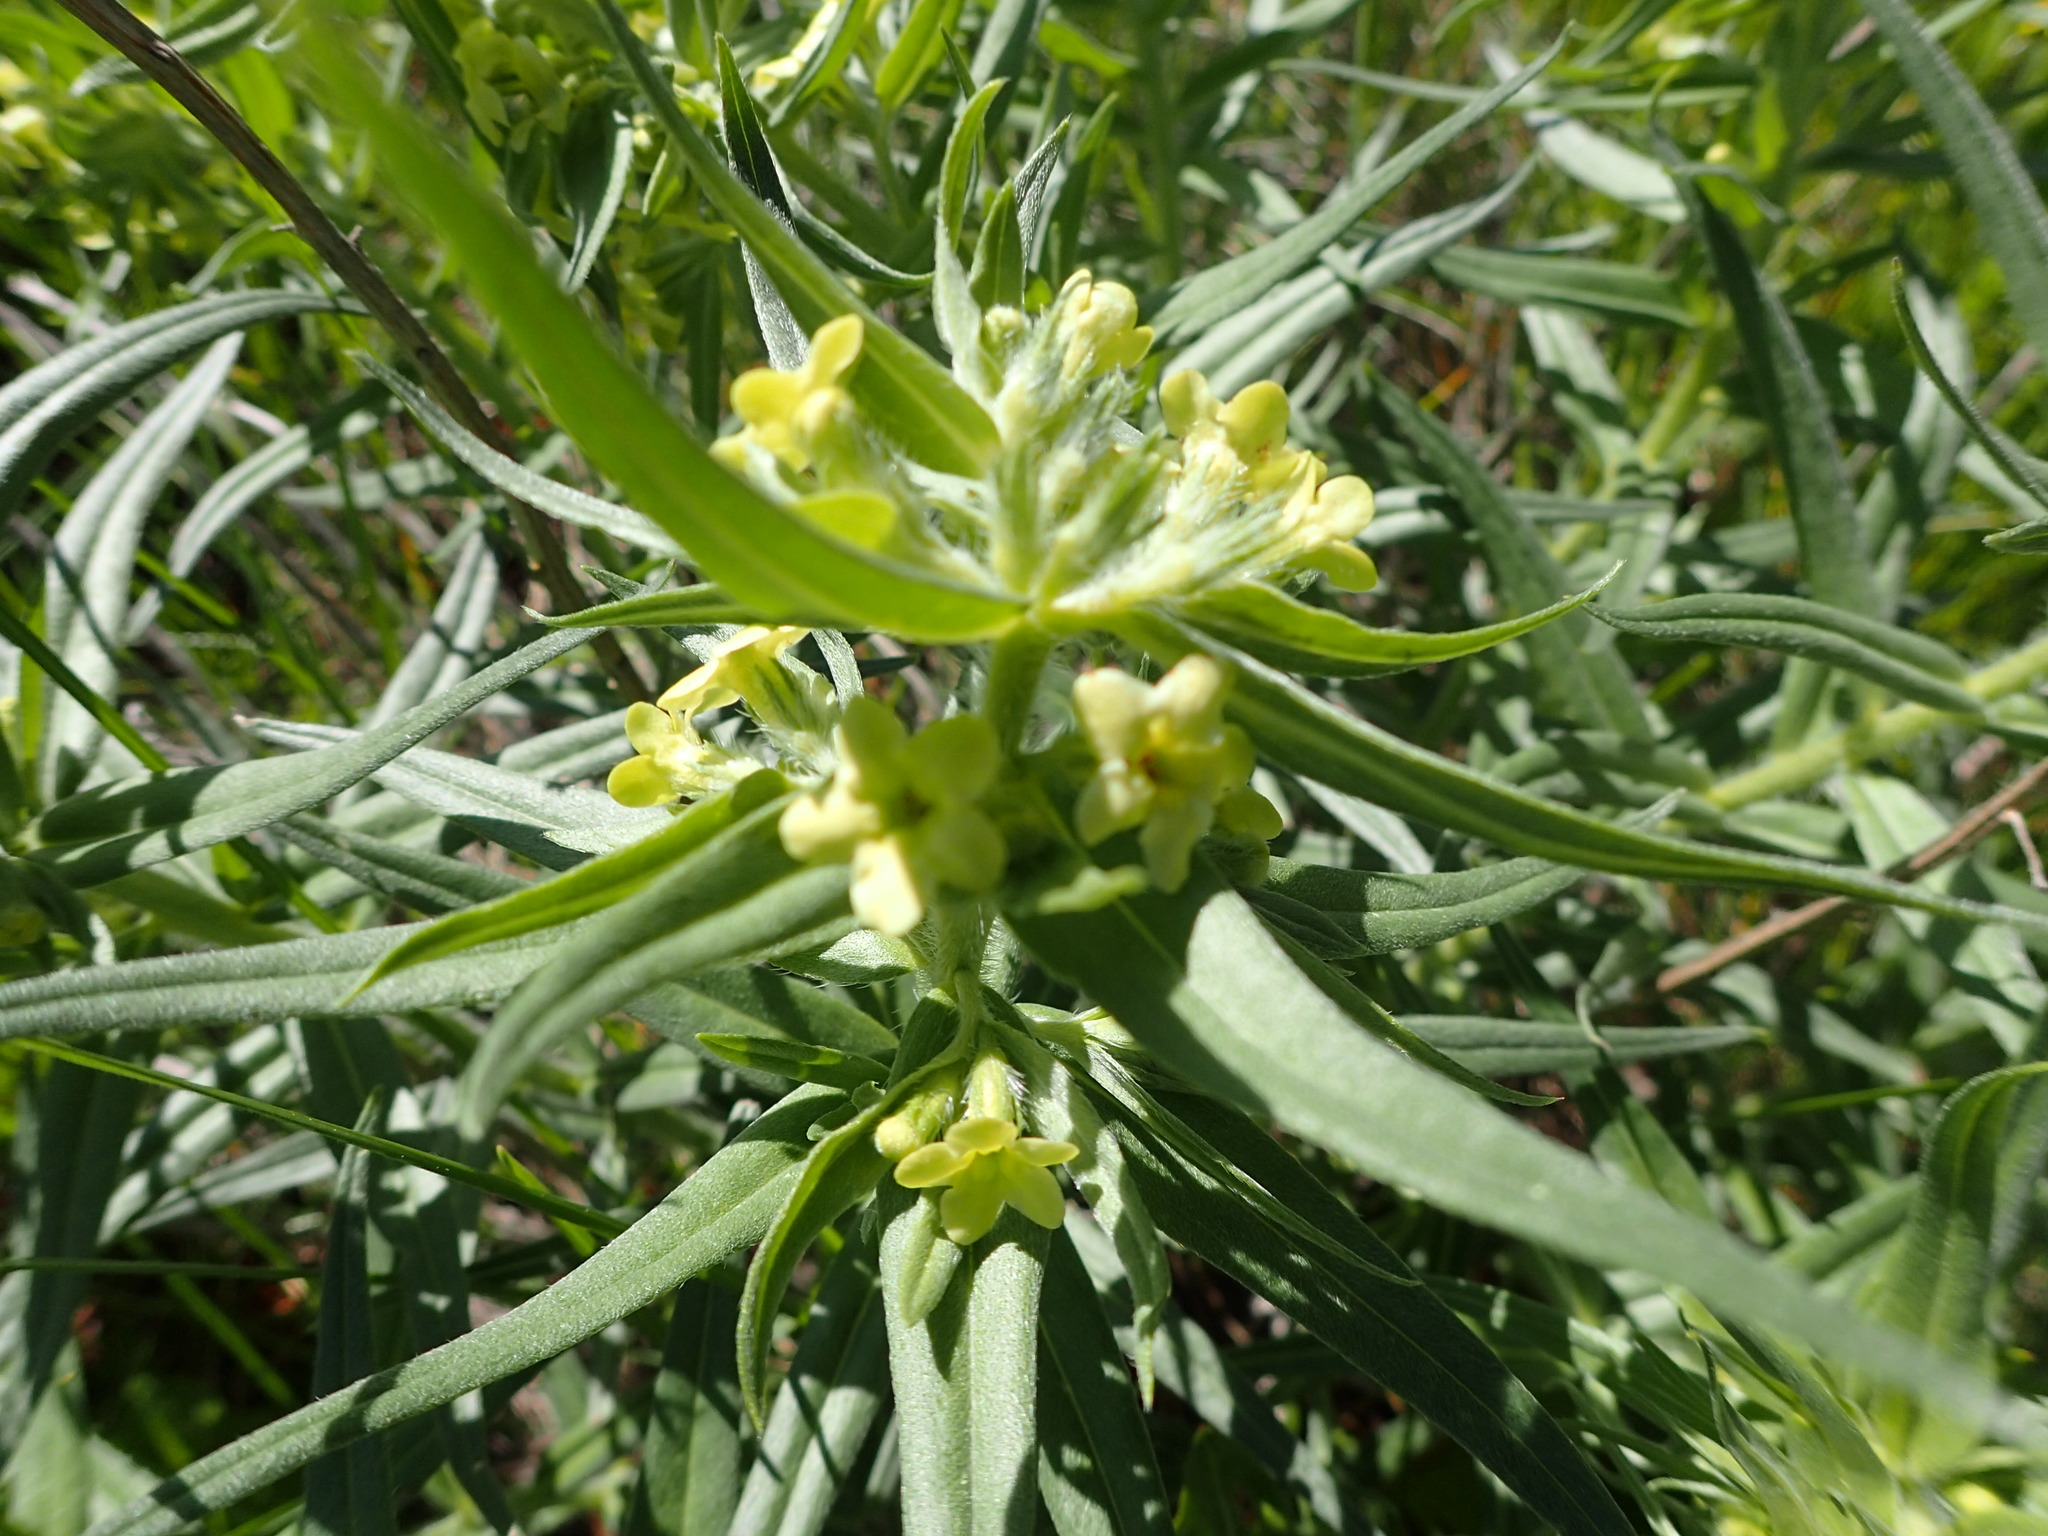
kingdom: Plantae
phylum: Tracheophyta
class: Magnoliopsida
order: Boraginales
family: Boraginaceae
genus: Lithospermum
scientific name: Lithospermum ruderale
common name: Western gromwell
